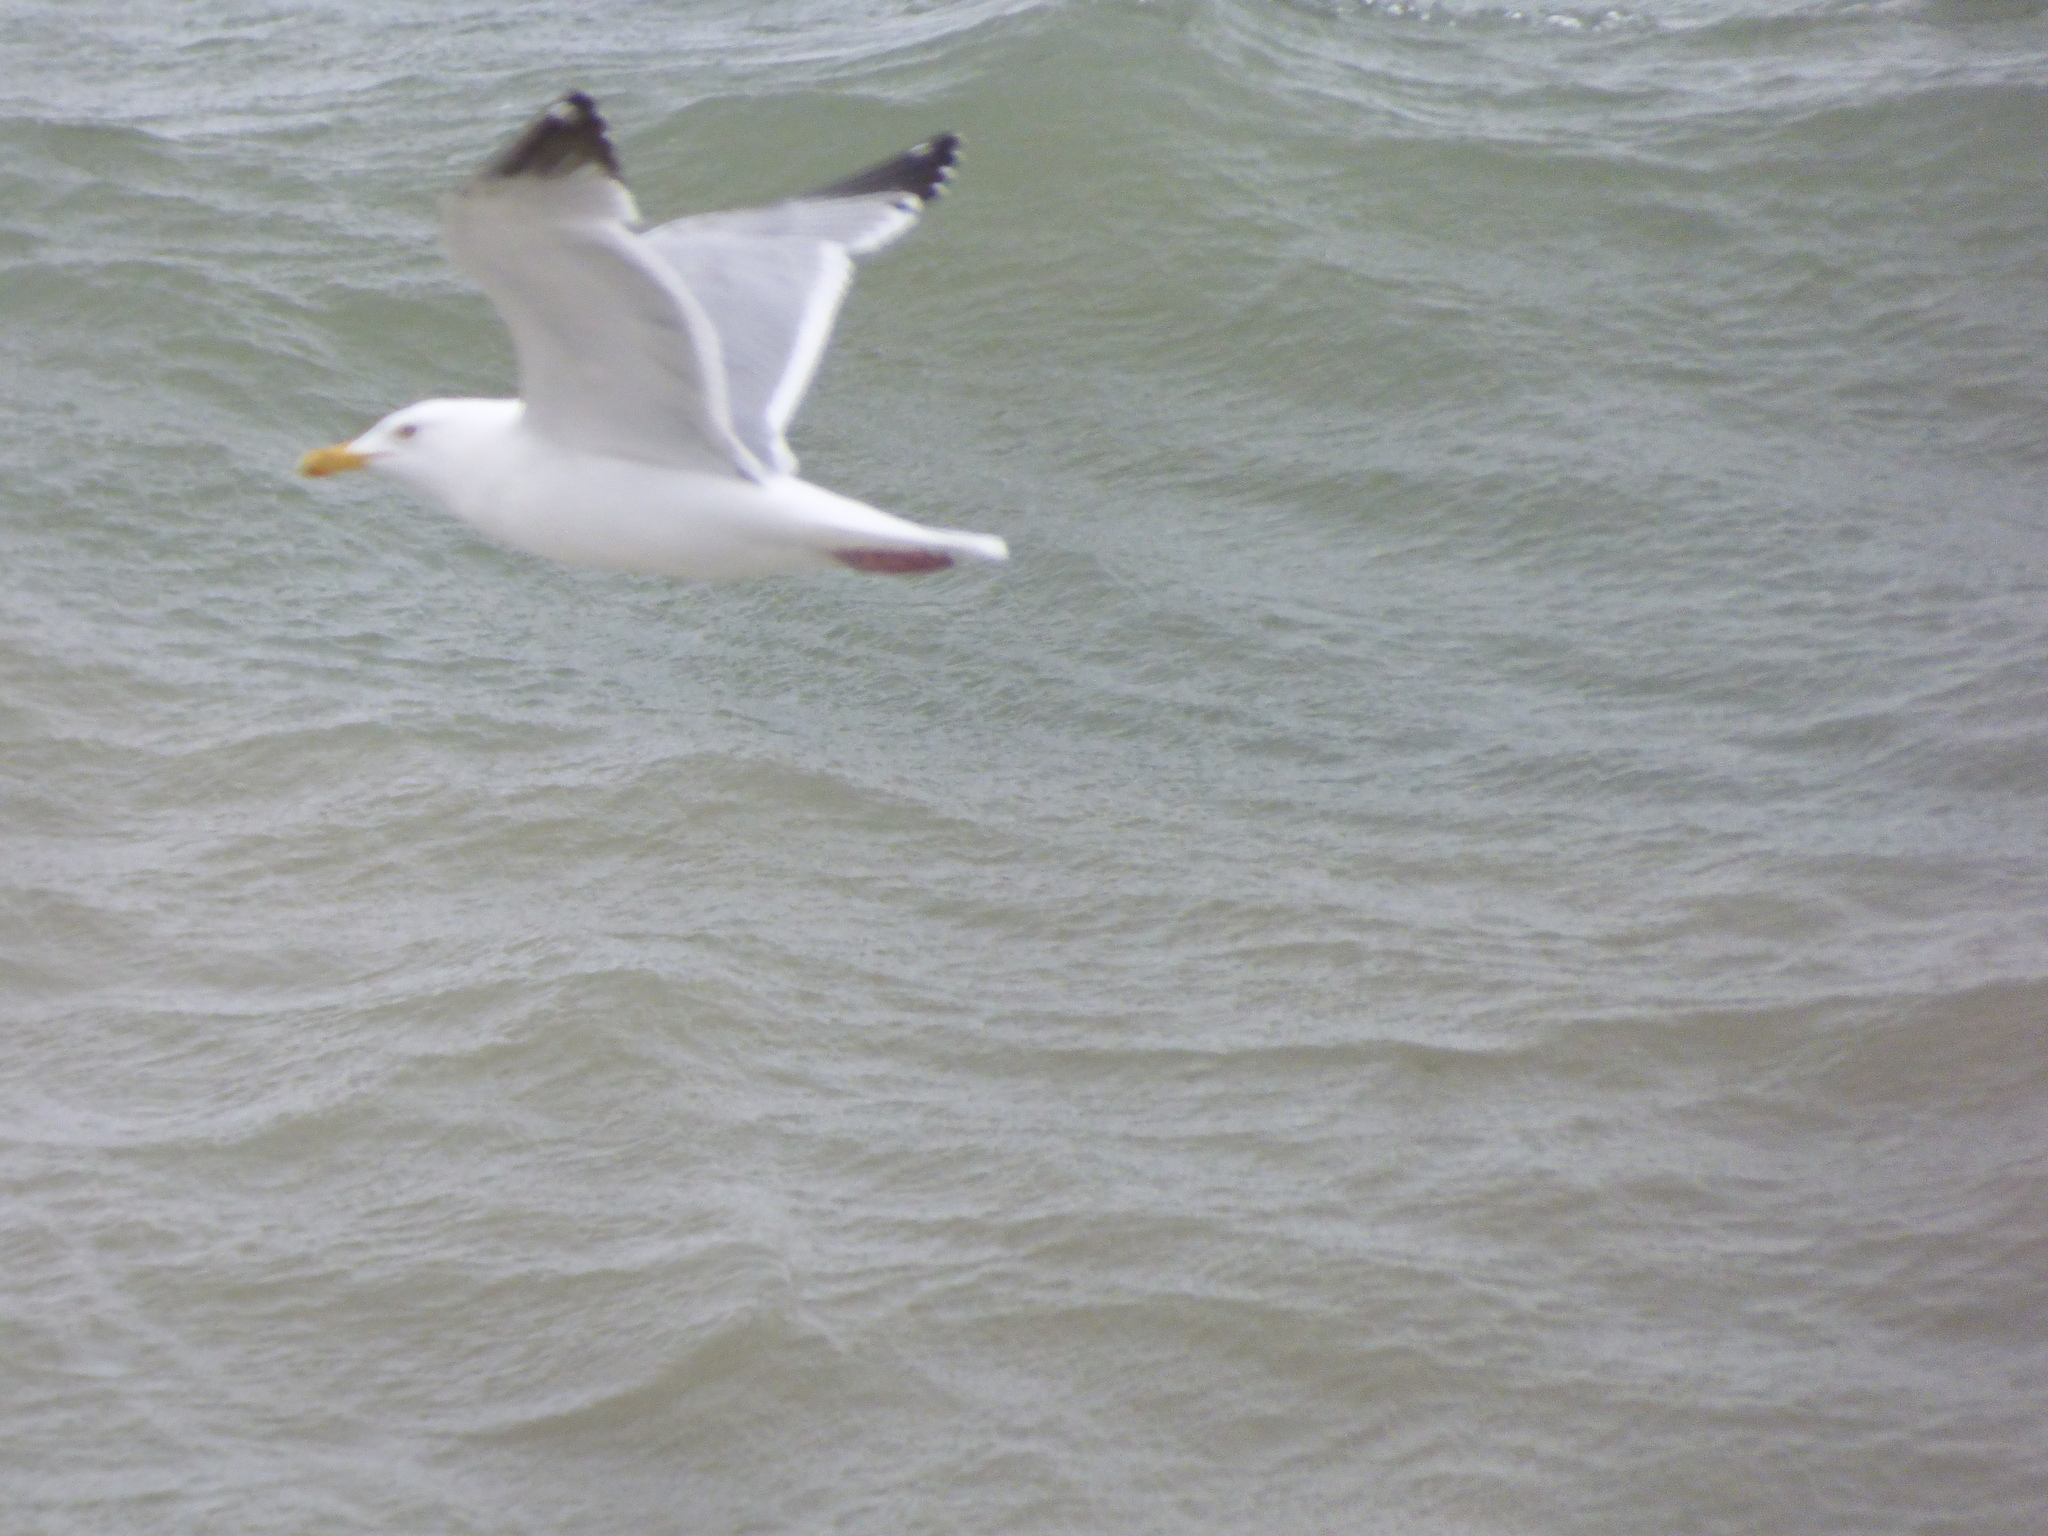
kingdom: Animalia
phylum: Chordata
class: Aves
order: Charadriiformes
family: Laridae
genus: Larus
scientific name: Larus argentatus
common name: Herring gull
